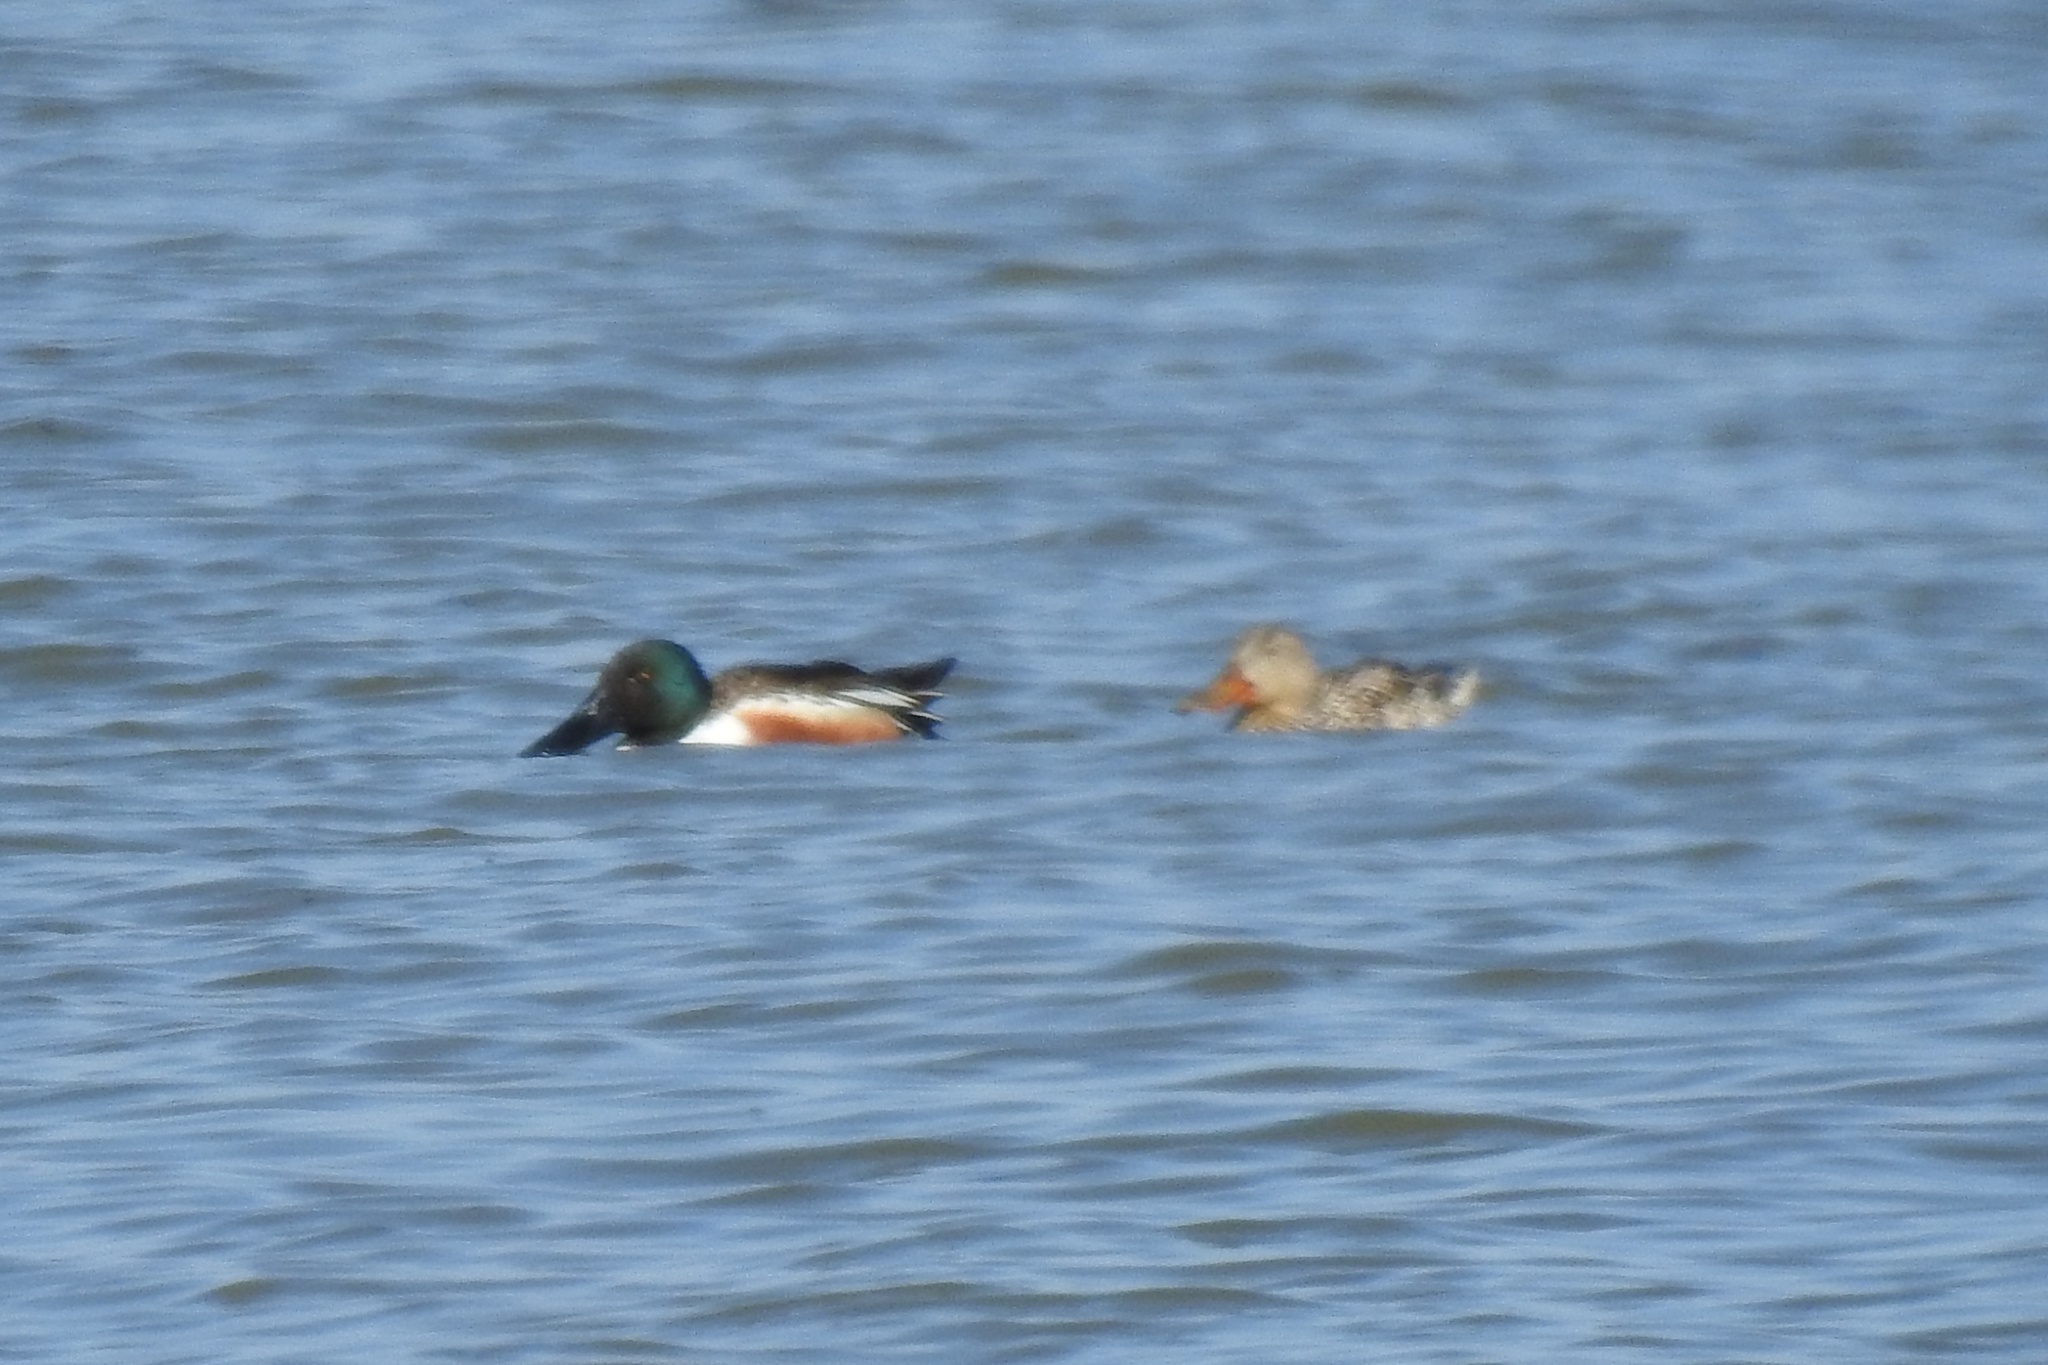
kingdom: Animalia
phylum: Chordata
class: Aves
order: Anseriformes
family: Anatidae
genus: Spatula
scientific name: Spatula clypeata
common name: Northern shoveler
